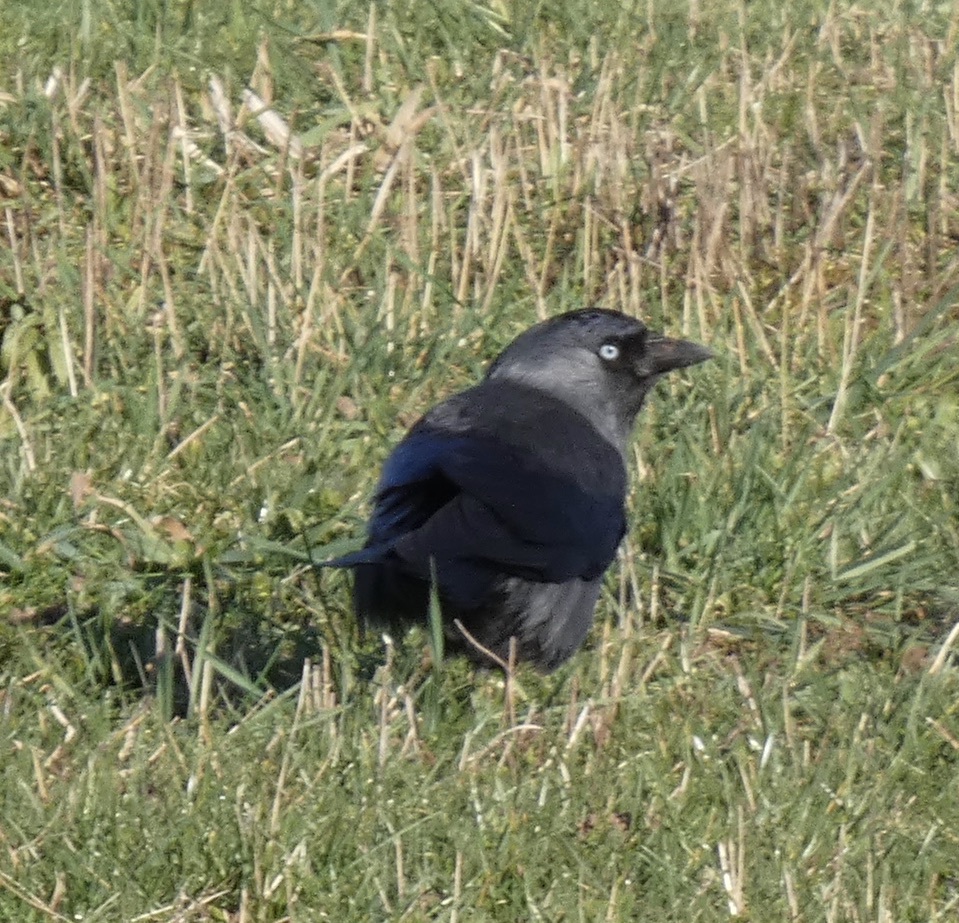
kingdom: Animalia
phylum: Chordata
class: Aves
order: Passeriformes
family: Corvidae
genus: Coloeus
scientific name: Coloeus monedula
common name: Western jackdaw
